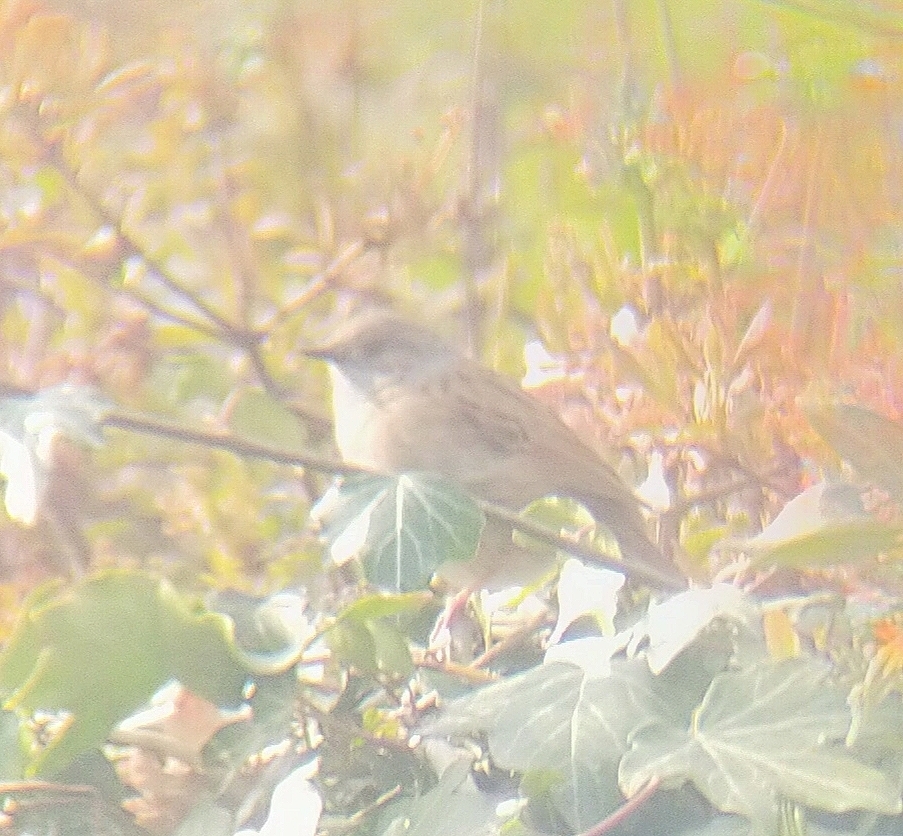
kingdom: Animalia
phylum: Chordata
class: Aves
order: Passeriformes
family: Prunellidae
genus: Prunella
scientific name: Prunella modularis
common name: Dunnock
